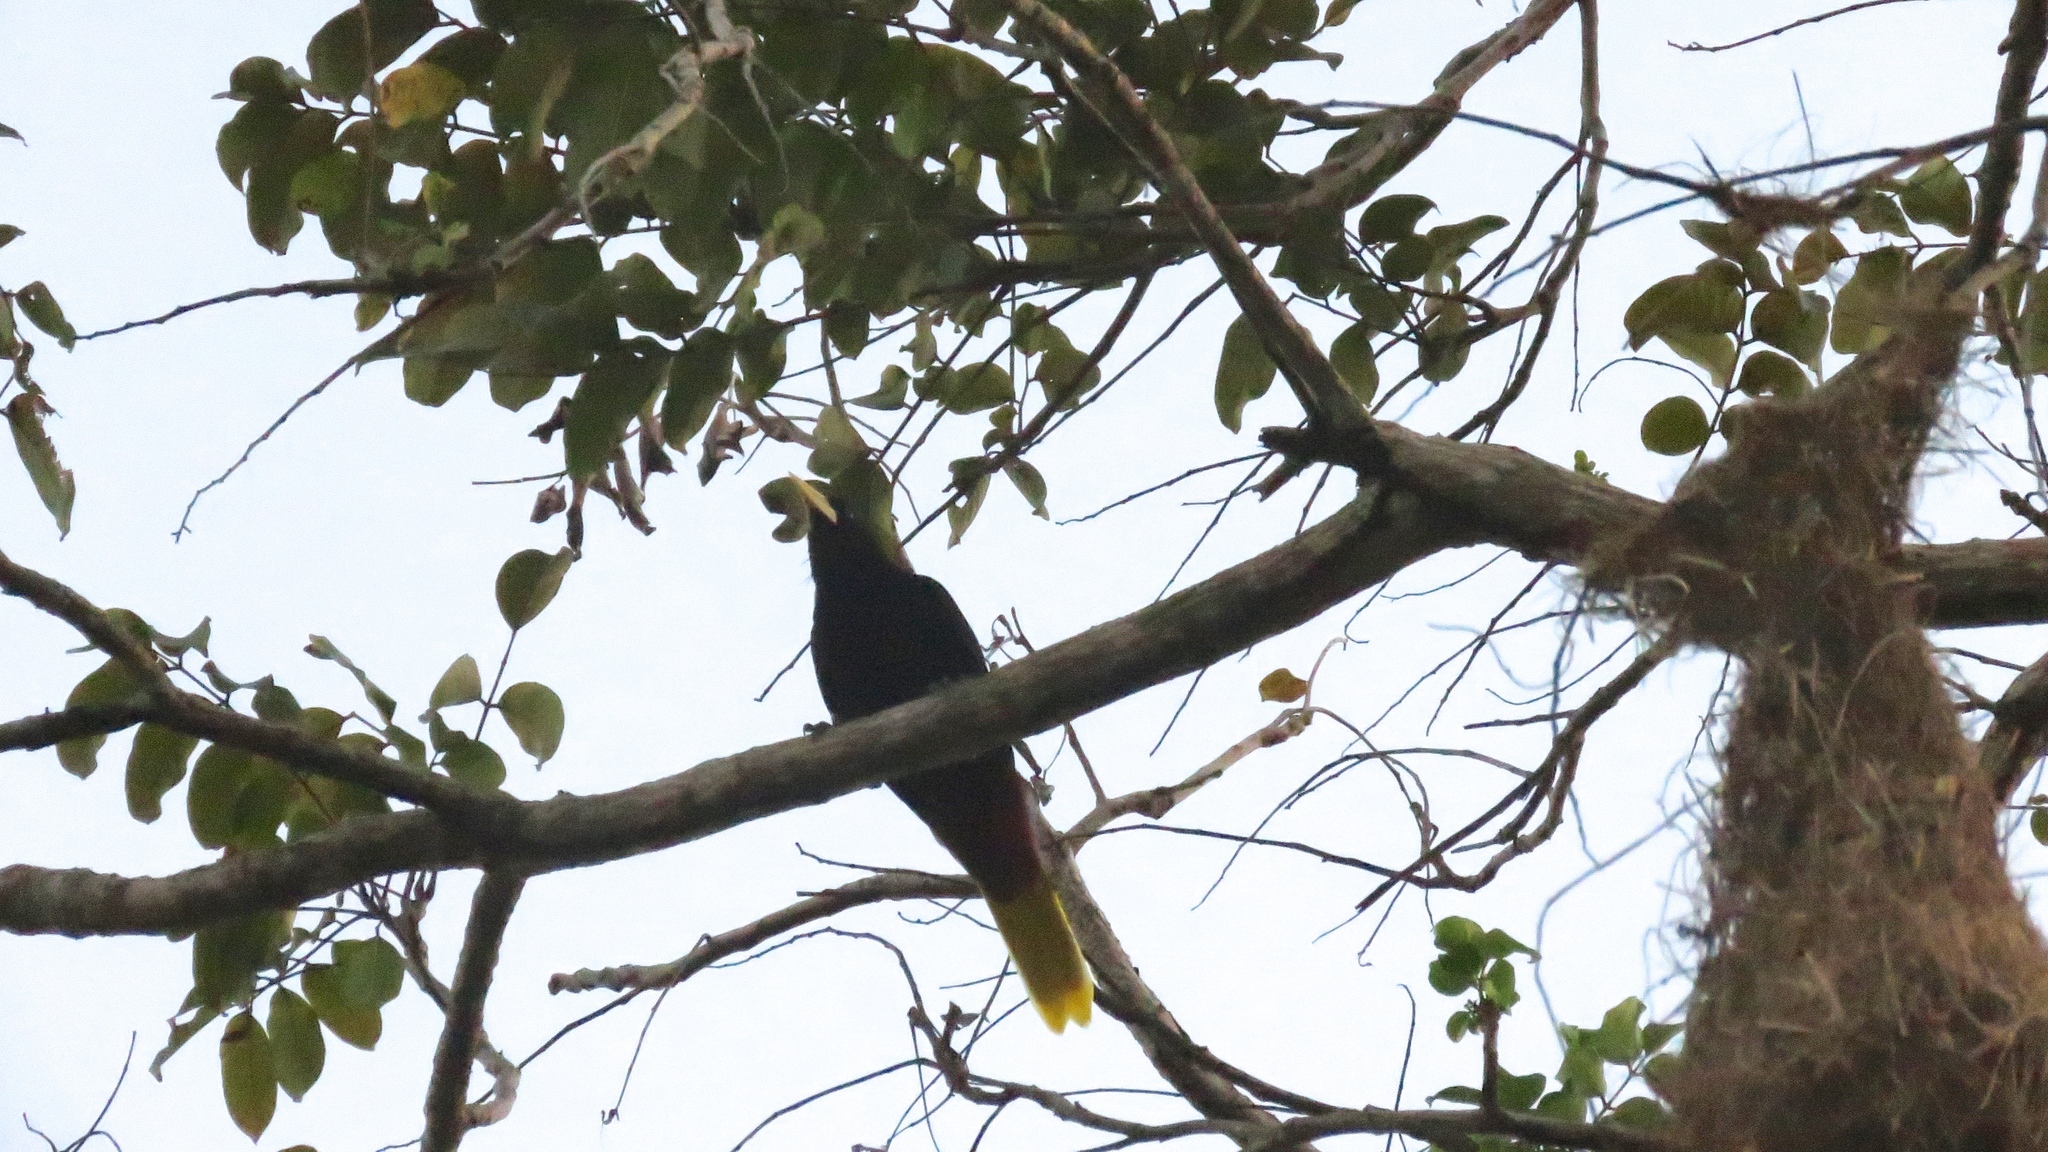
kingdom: Animalia
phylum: Chordata
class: Aves
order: Passeriformes
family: Icteridae
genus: Psarocolius
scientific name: Psarocolius decumanus
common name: Crested oropendola
